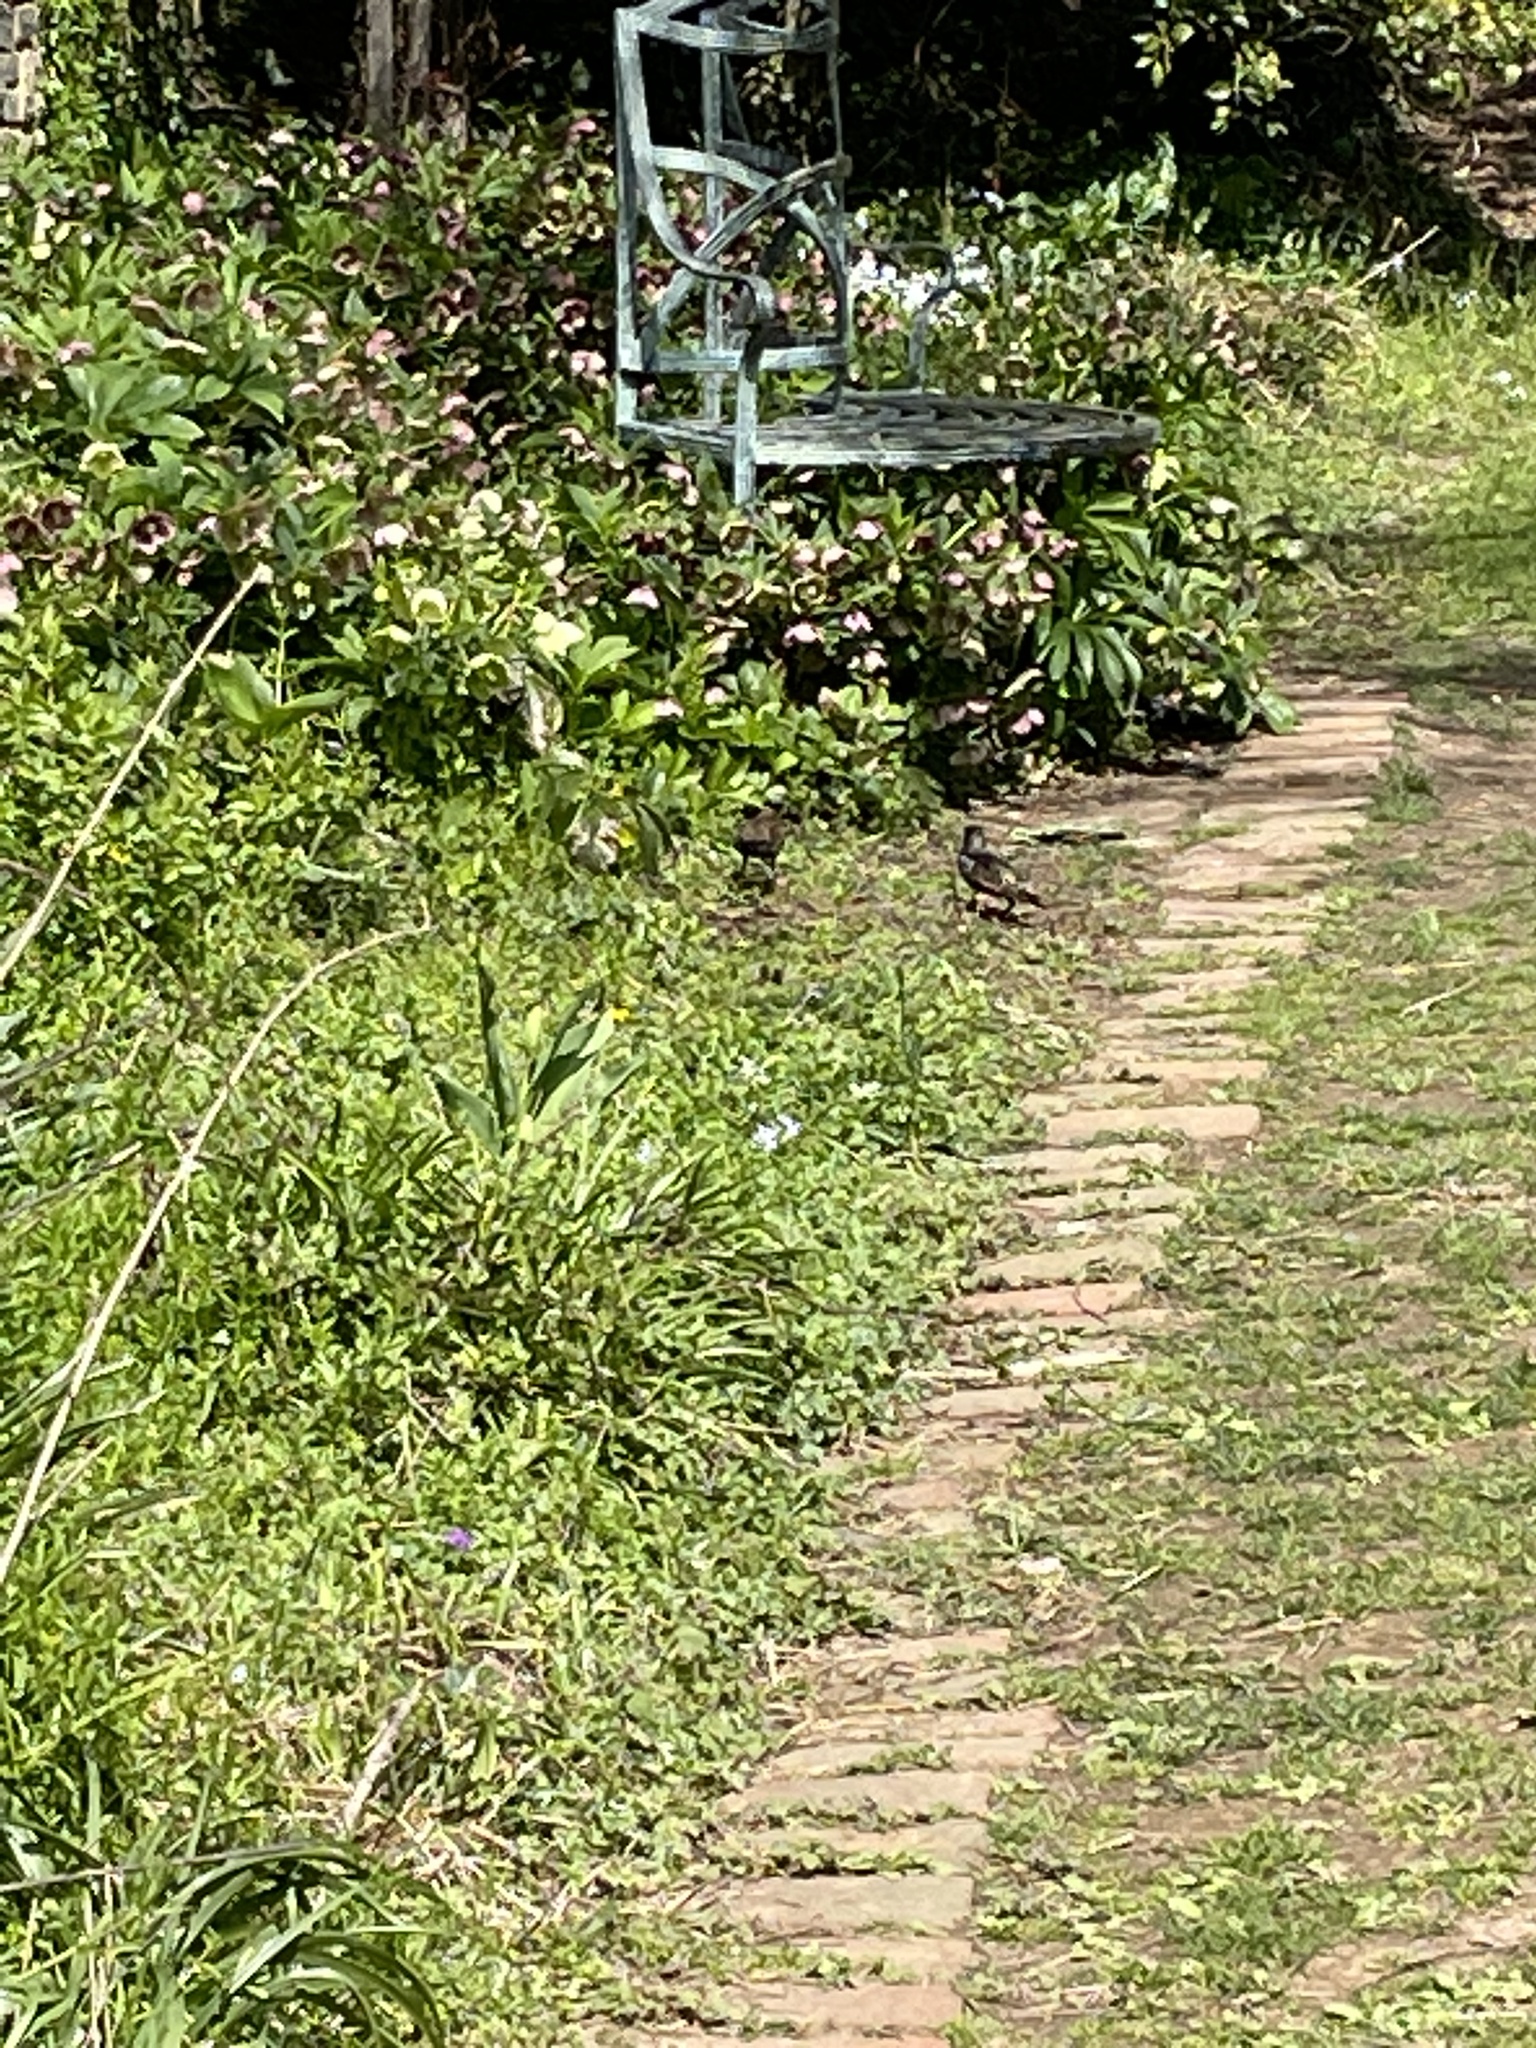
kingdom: Animalia
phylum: Chordata
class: Aves
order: Passeriformes
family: Sturnidae
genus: Sturnus
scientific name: Sturnus vulgaris
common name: Common starling
